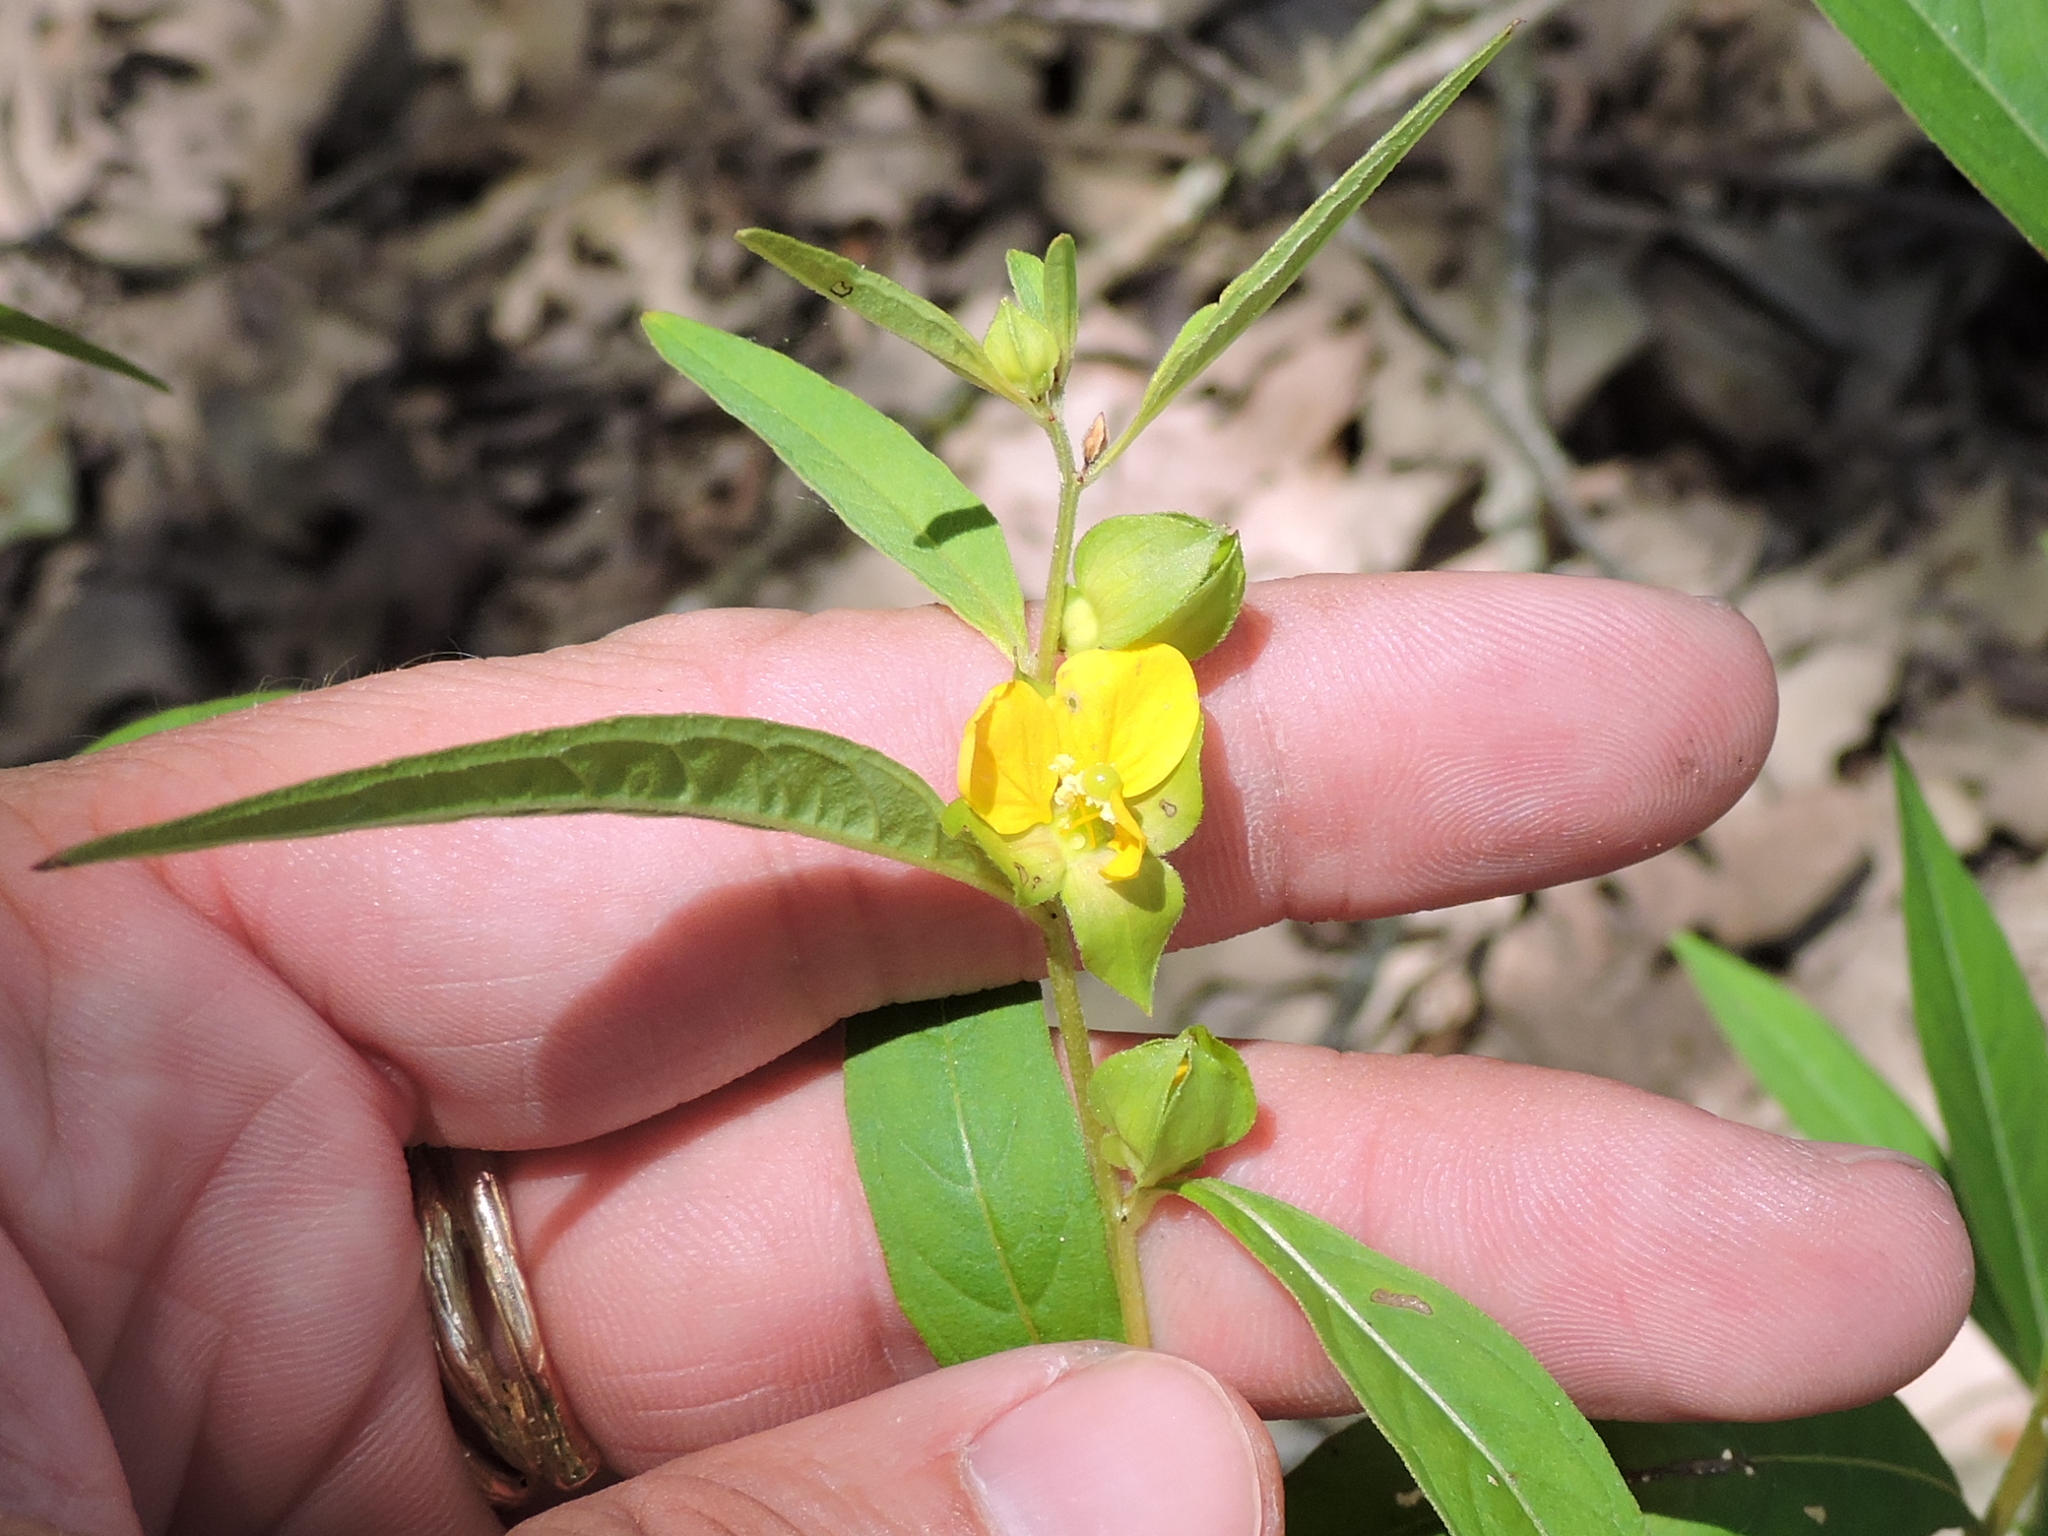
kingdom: Plantae
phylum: Tracheophyta
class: Magnoliopsida
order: Myrtales
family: Onagraceae
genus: Ludwigia
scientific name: Ludwigia alternifolia
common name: Rattlebox
